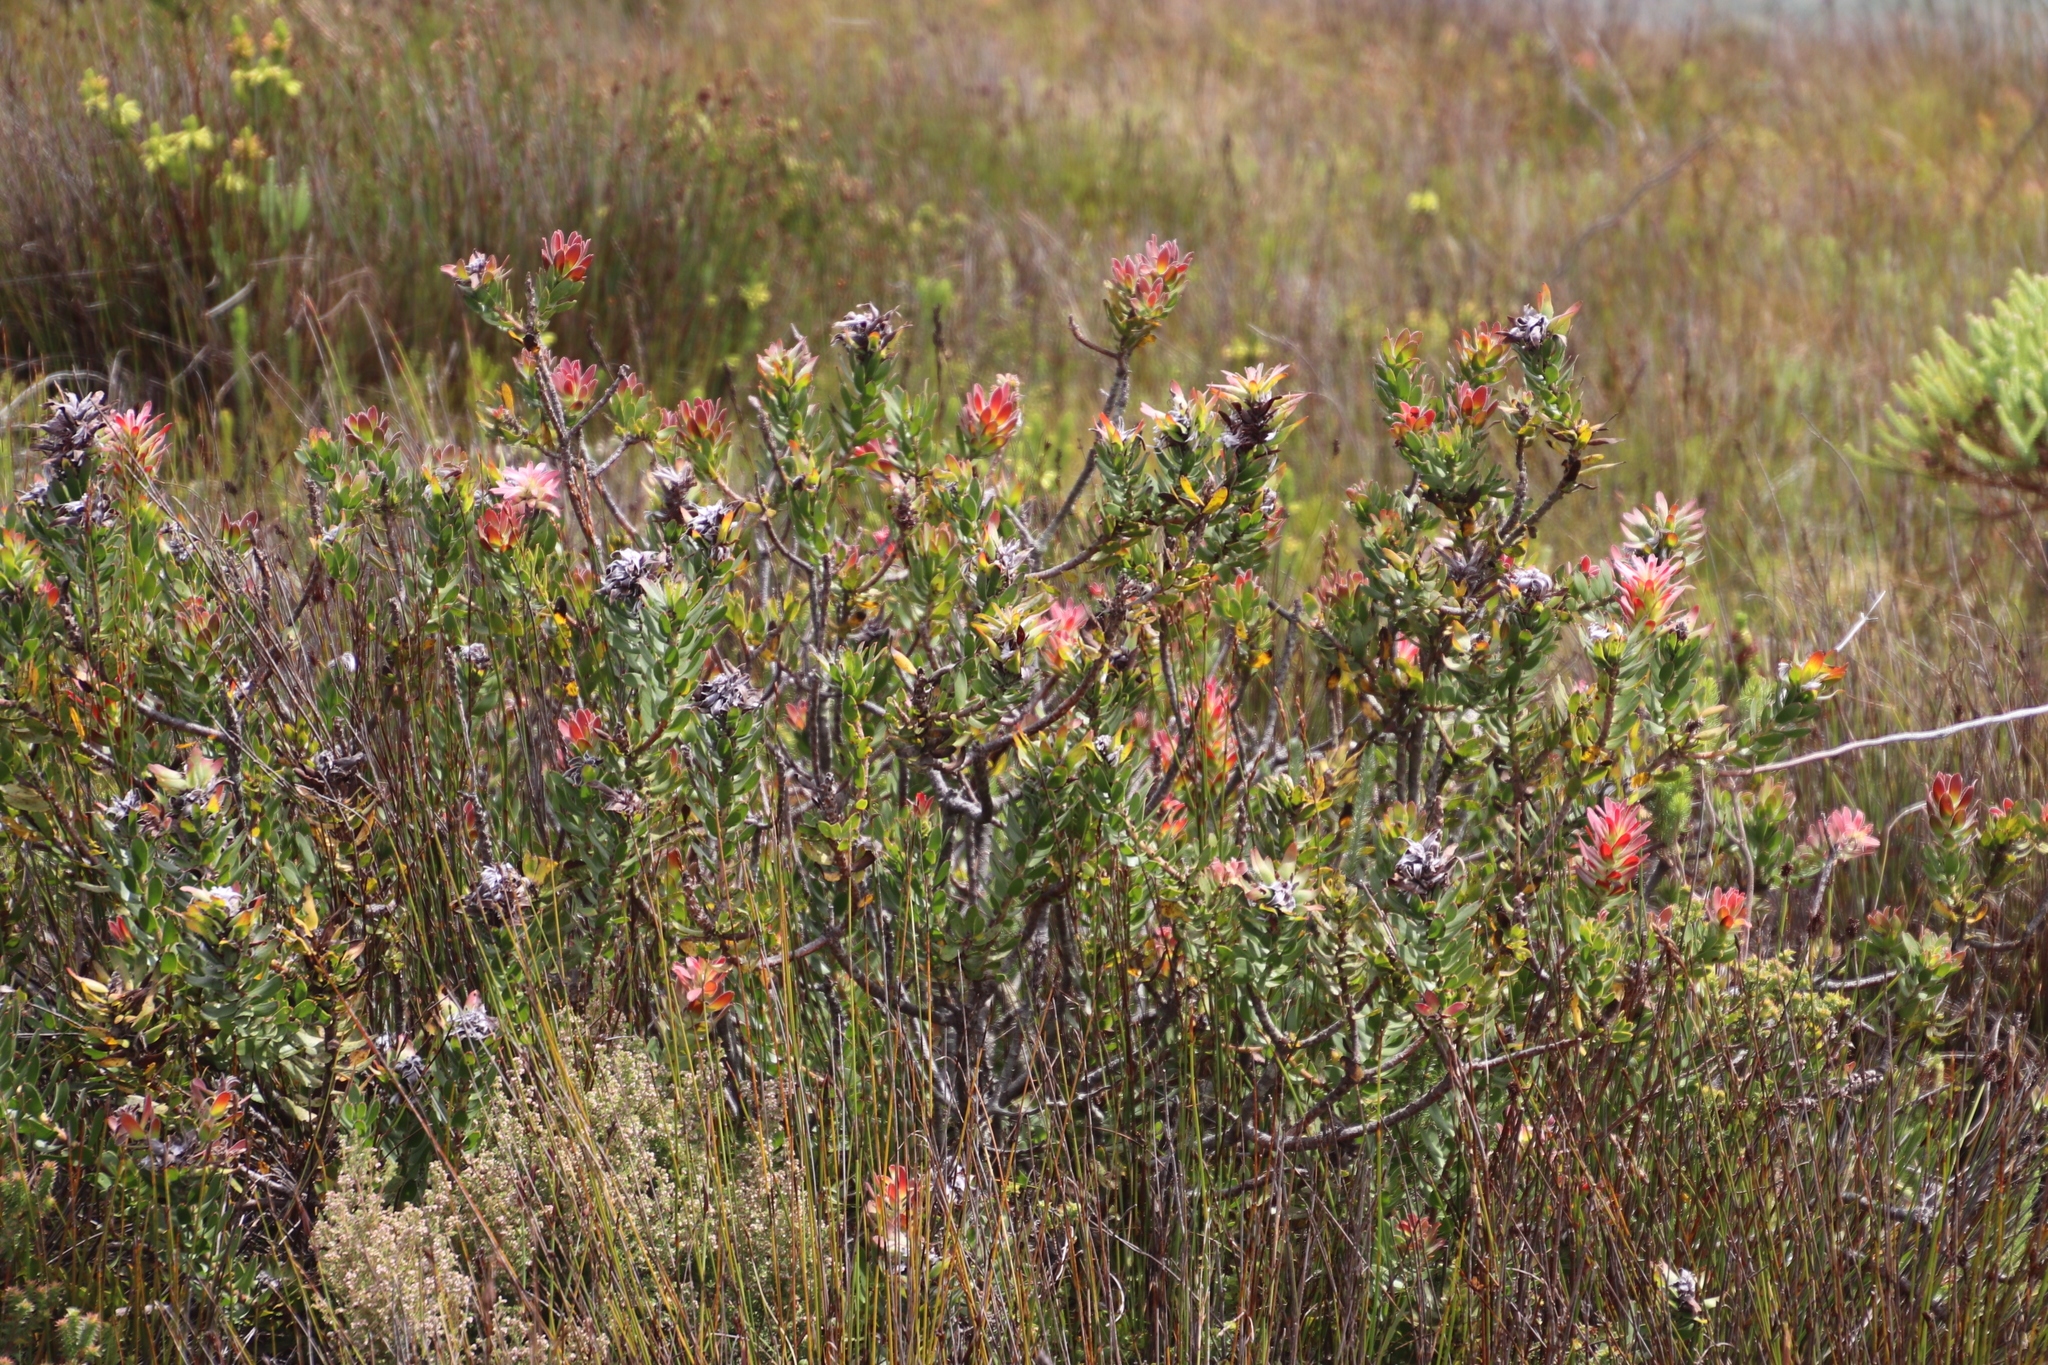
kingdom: Plantae
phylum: Tracheophyta
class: Magnoliopsida
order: Proteales
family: Proteaceae
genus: Mimetes
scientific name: Mimetes cucullatus
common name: Common pagoda
